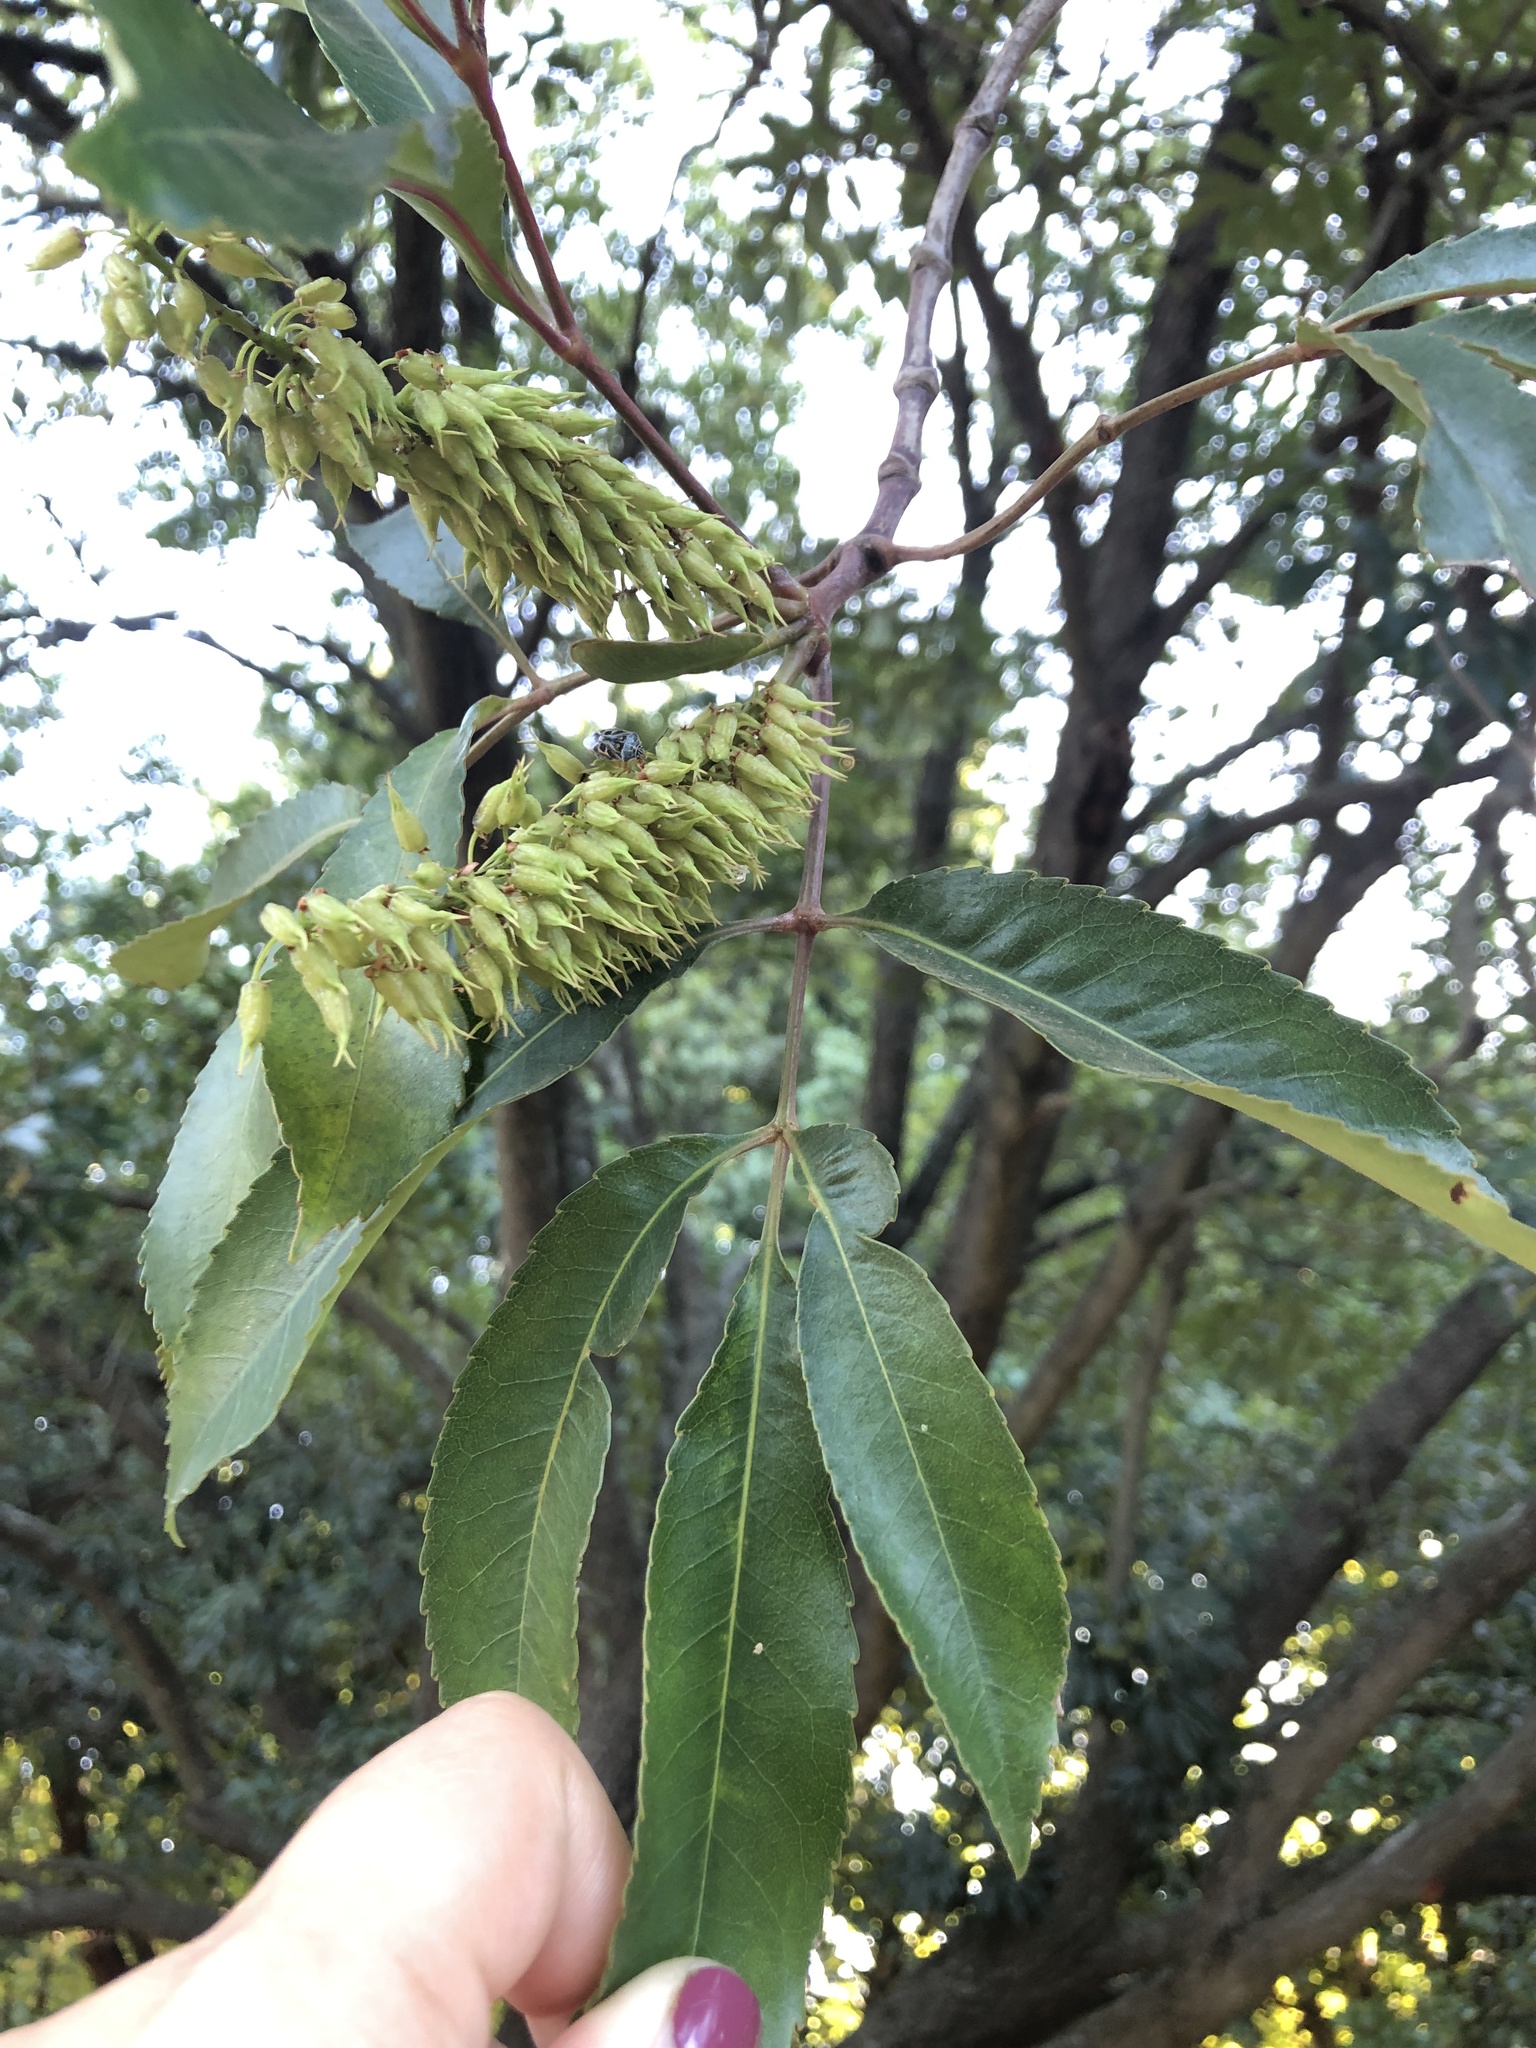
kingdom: Plantae
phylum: Tracheophyta
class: Magnoliopsida
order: Oxalidales
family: Cunoniaceae
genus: Cunonia
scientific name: Cunonia capensis
